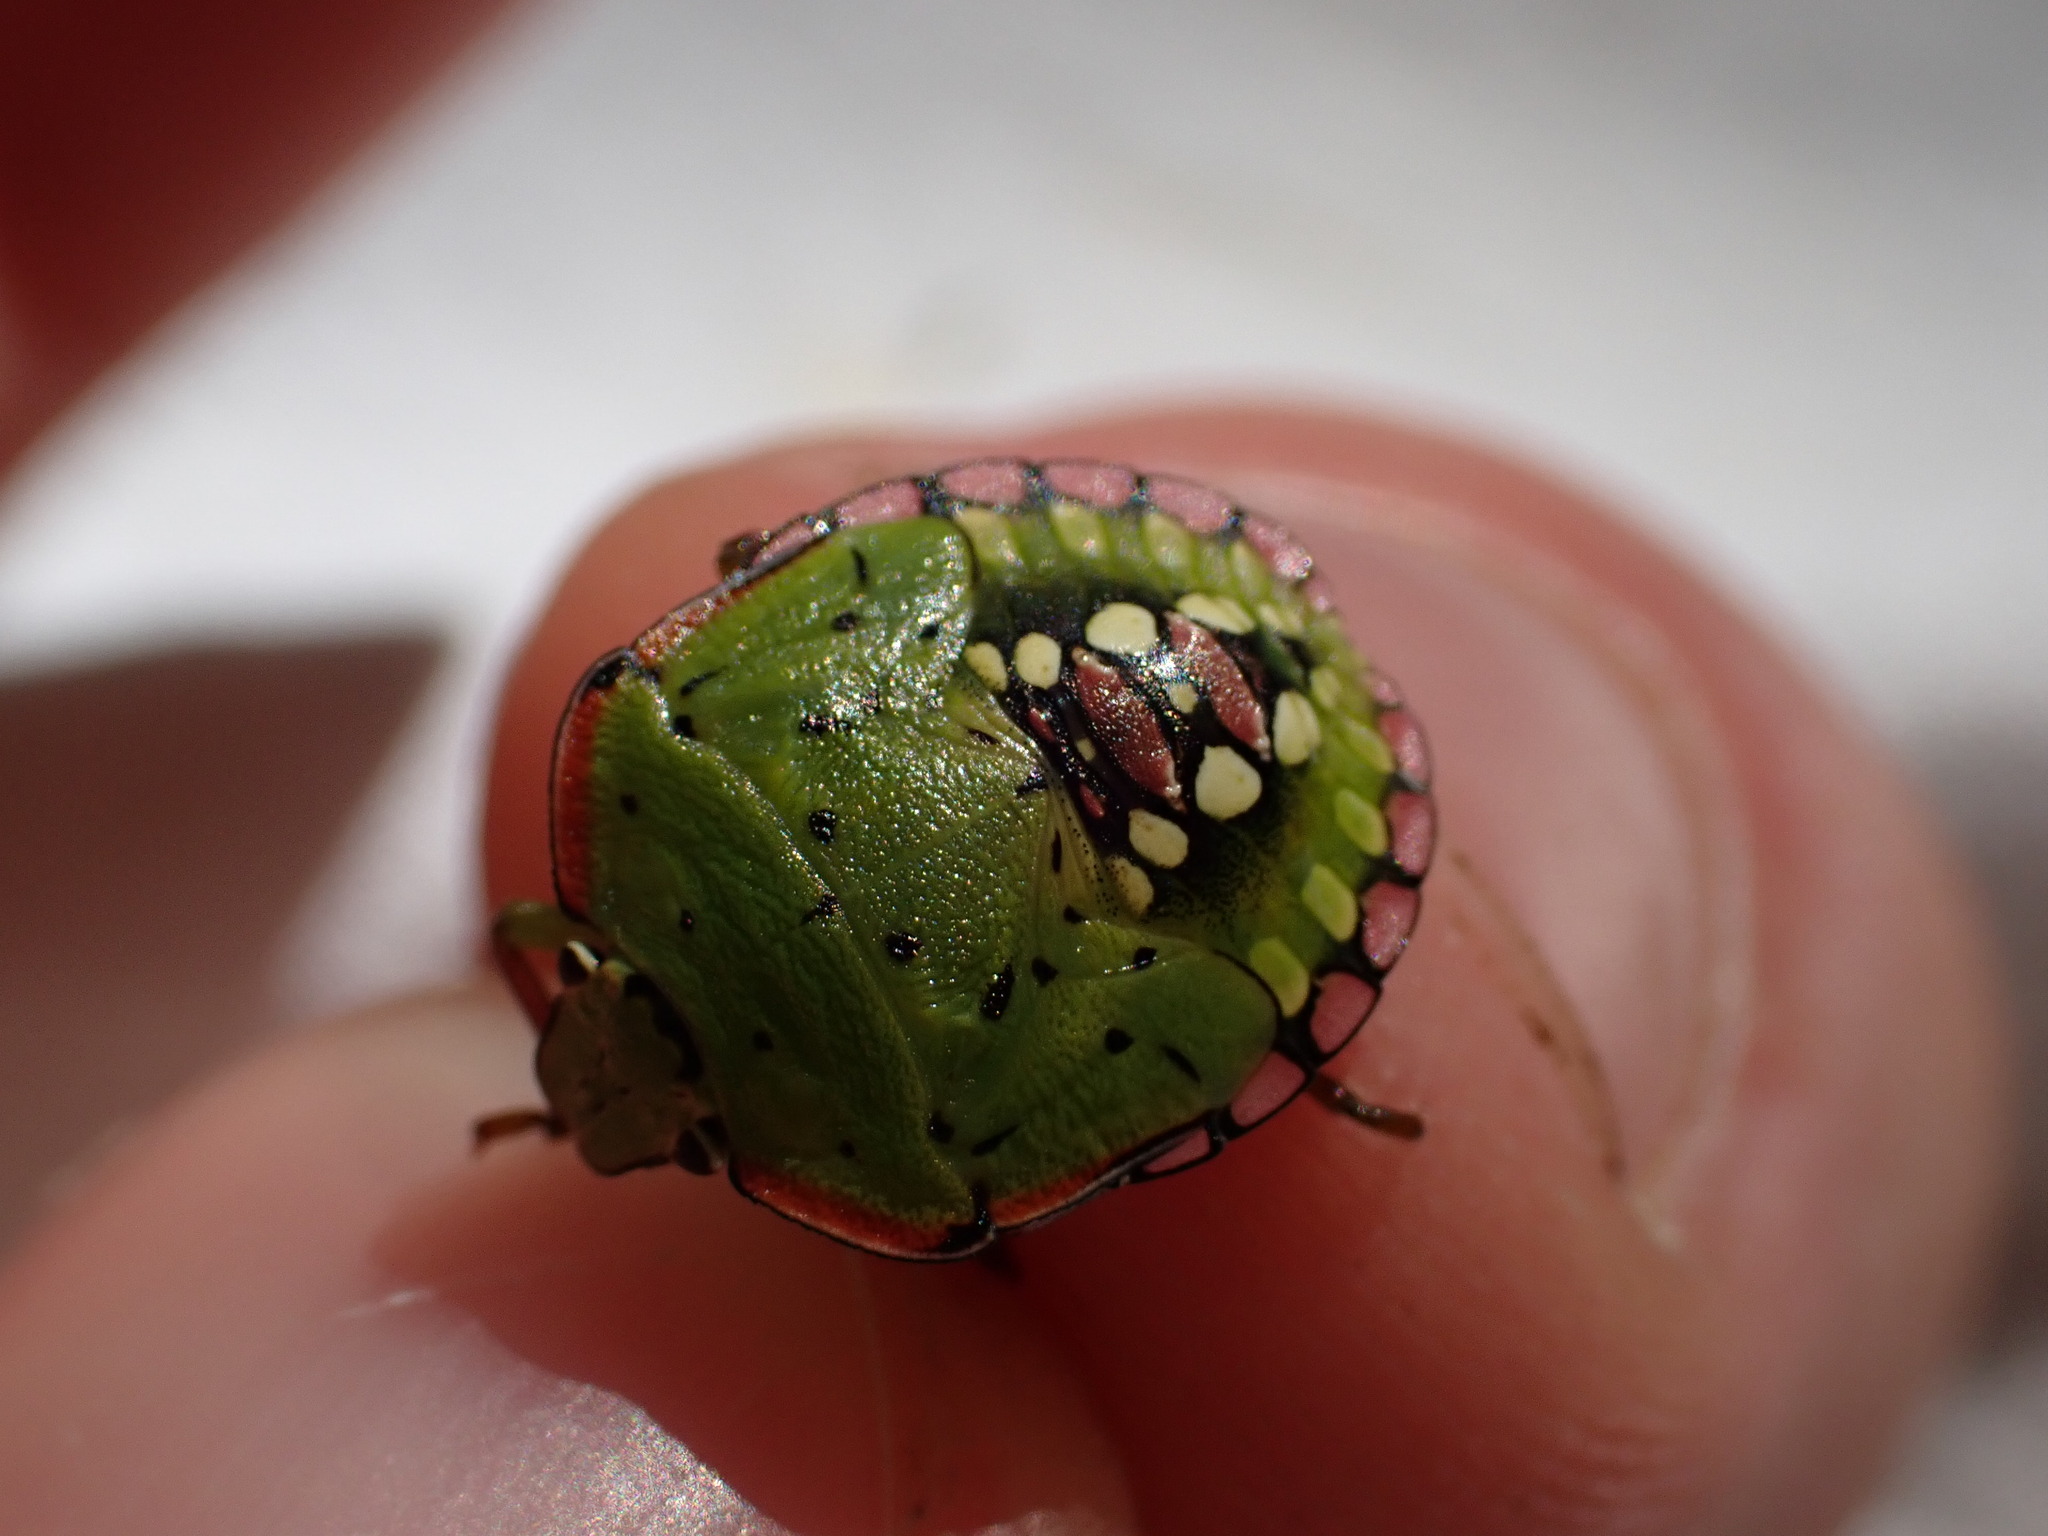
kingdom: Animalia
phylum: Arthropoda
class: Insecta
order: Hemiptera
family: Pentatomidae
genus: Nezara
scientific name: Nezara viridula
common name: Southern green stink bug
